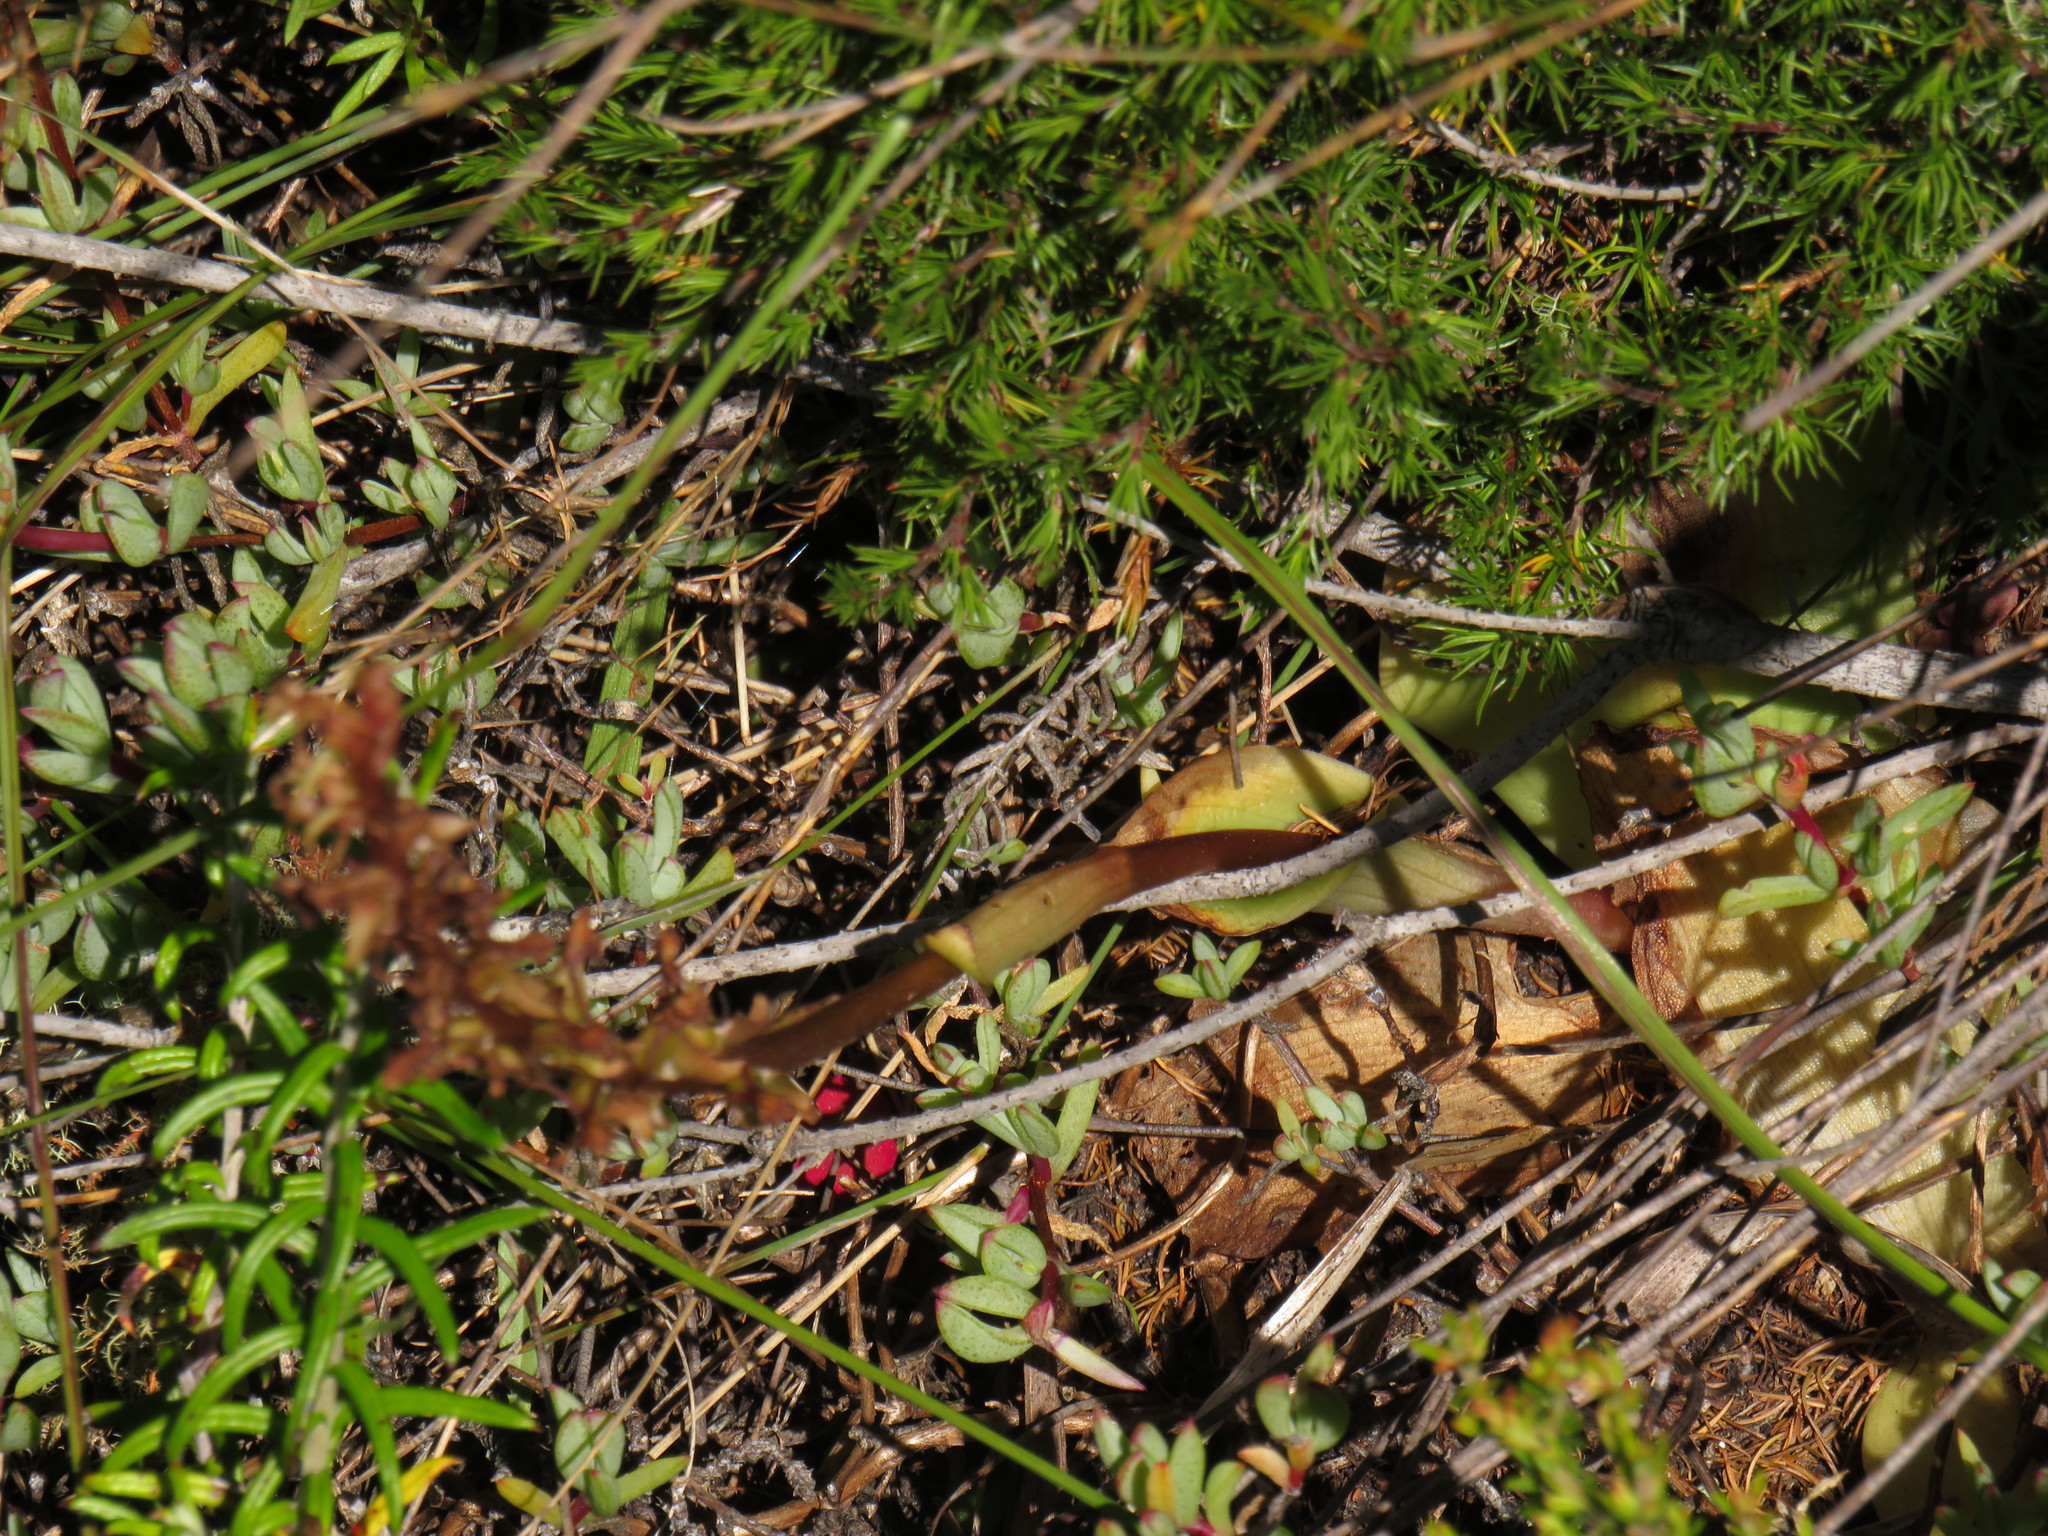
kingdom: Plantae
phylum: Tracheophyta
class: Liliopsida
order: Asparagales
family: Orchidaceae
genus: Satyrium
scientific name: Satyrium humile
